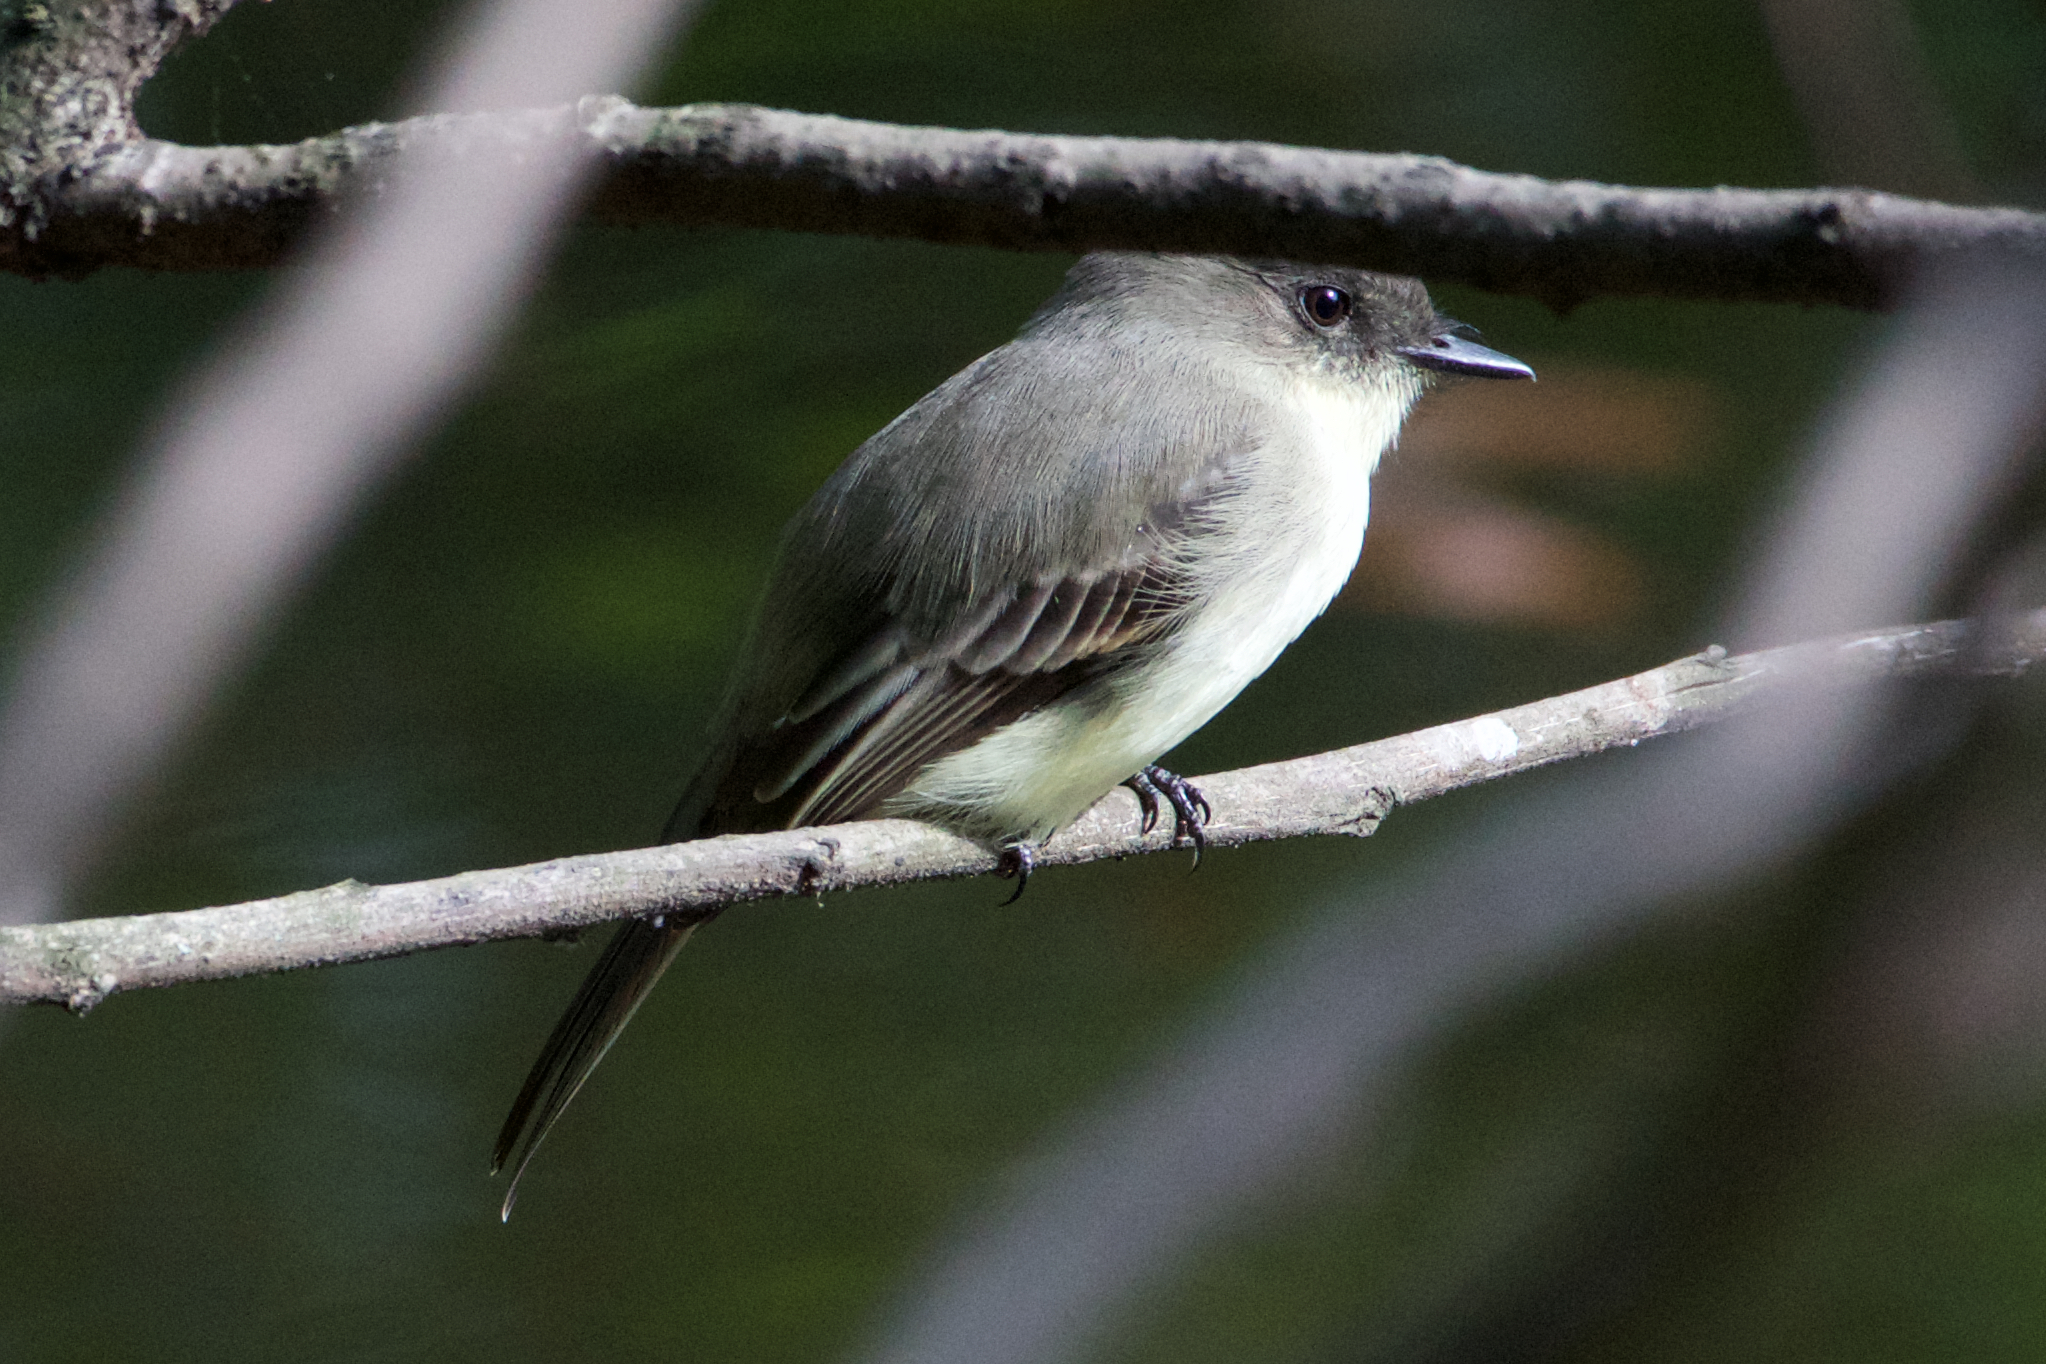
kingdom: Animalia
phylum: Chordata
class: Aves
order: Passeriformes
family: Tyrannidae
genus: Sayornis
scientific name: Sayornis phoebe
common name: Eastern phoebe
